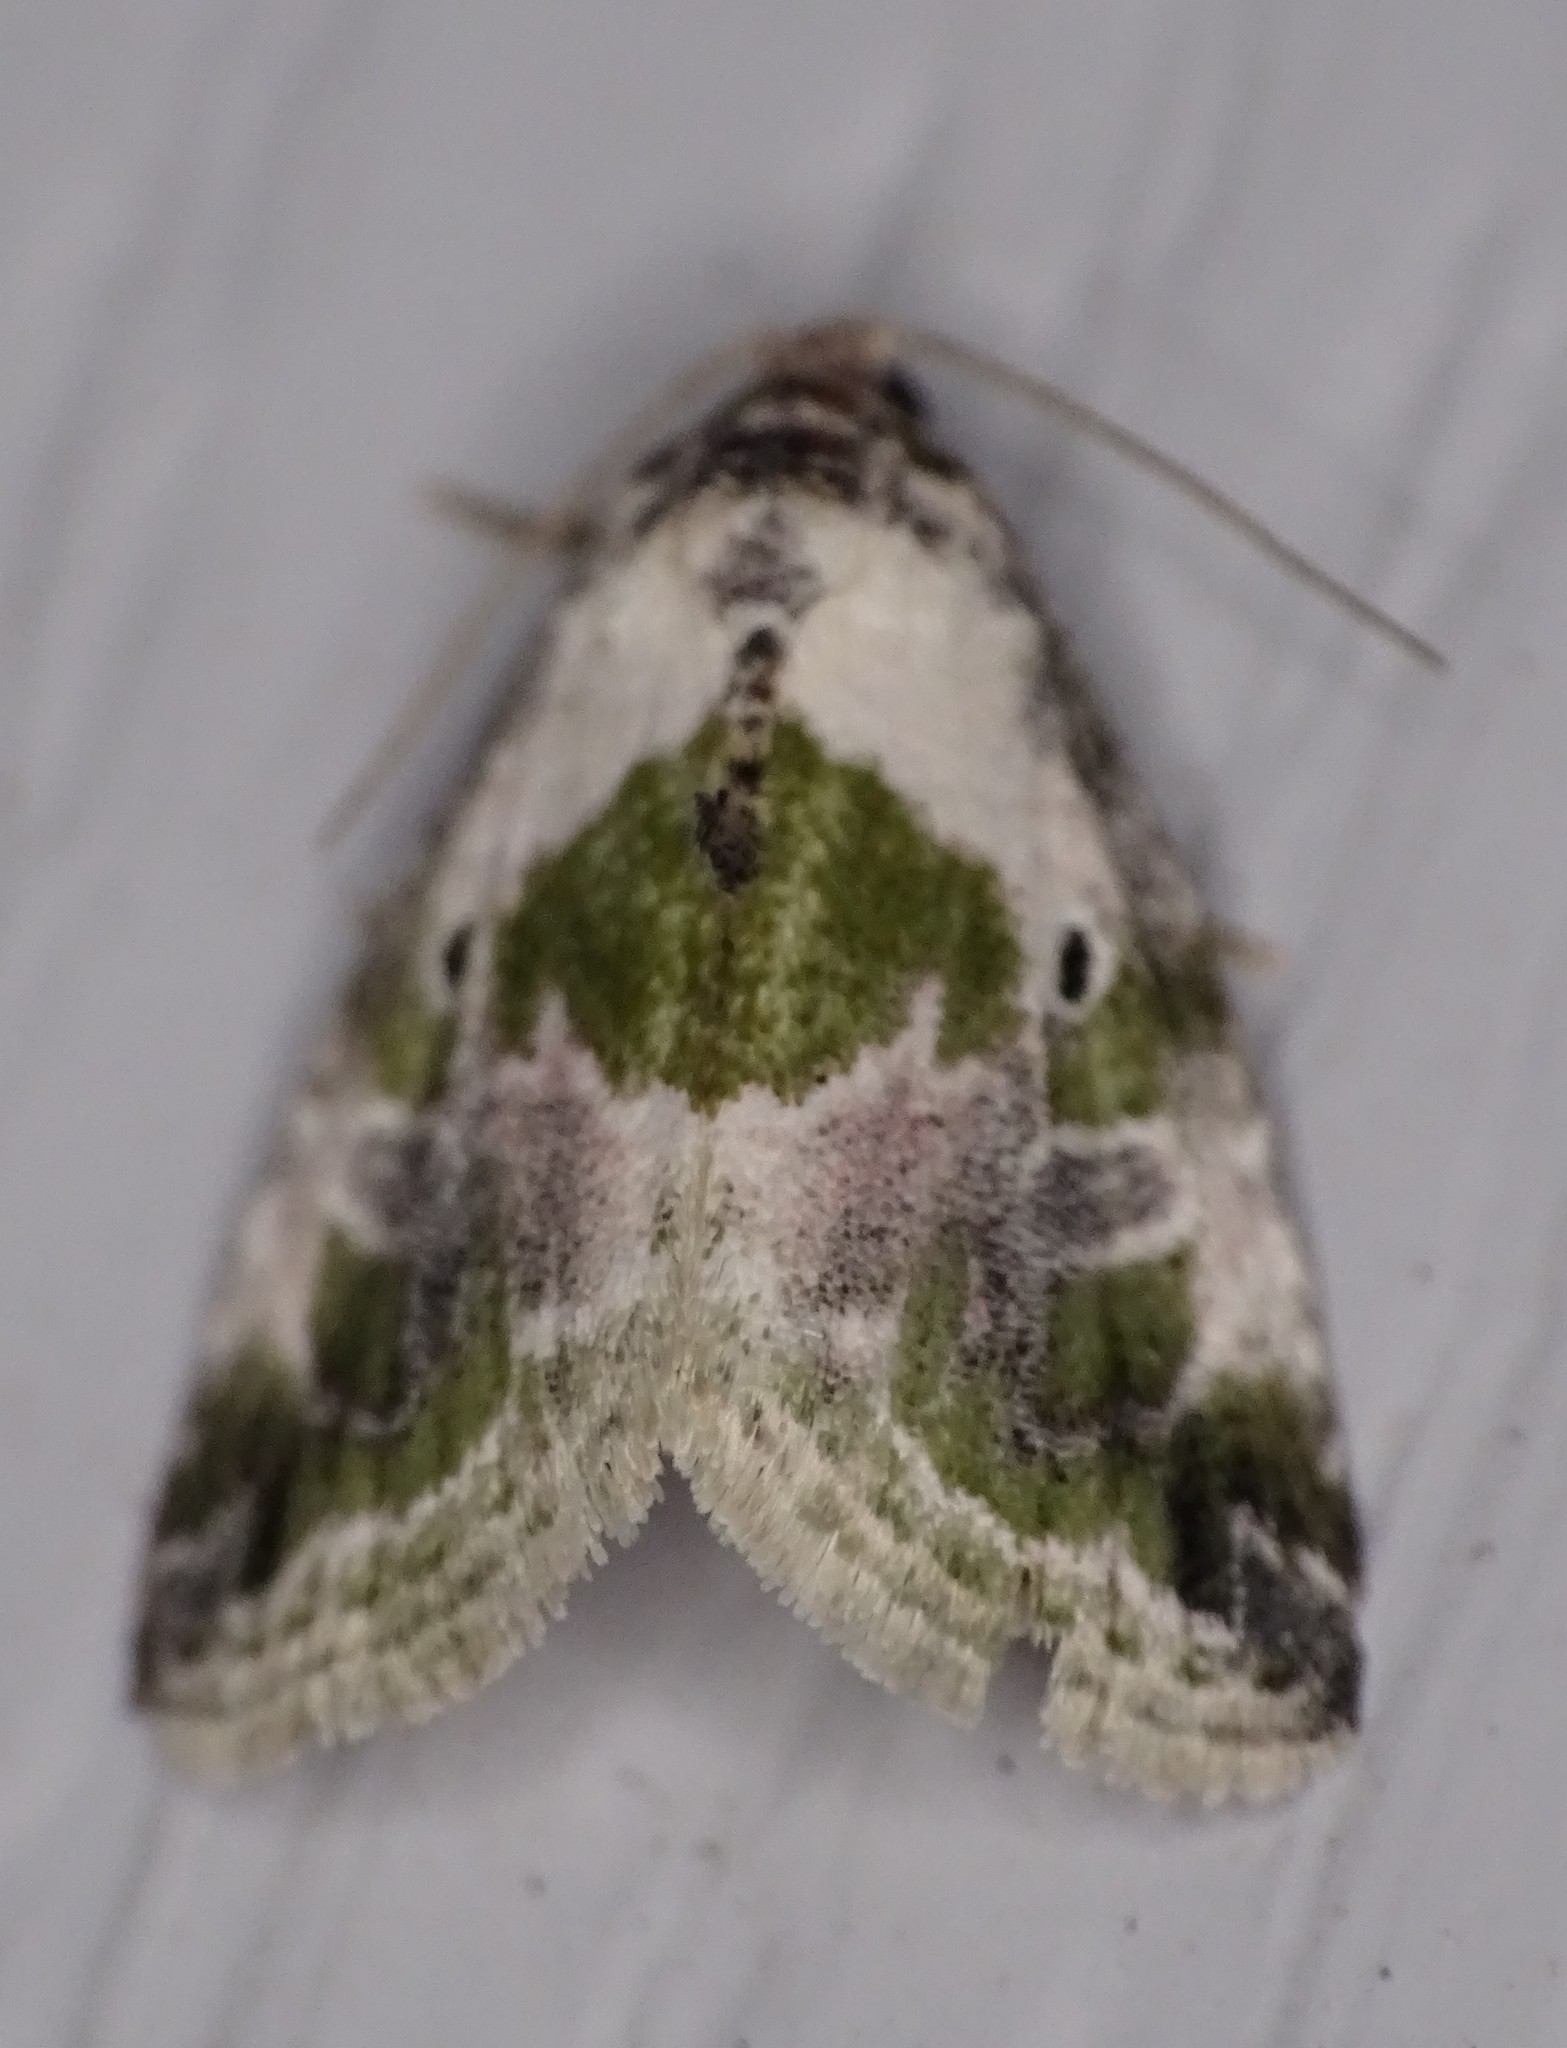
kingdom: Animalia
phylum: Arthropoda
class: Insecta
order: Lepidoptera
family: Noctuidae
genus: Maliattha
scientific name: Maliattha synochitis
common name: Black-dotted glyph
